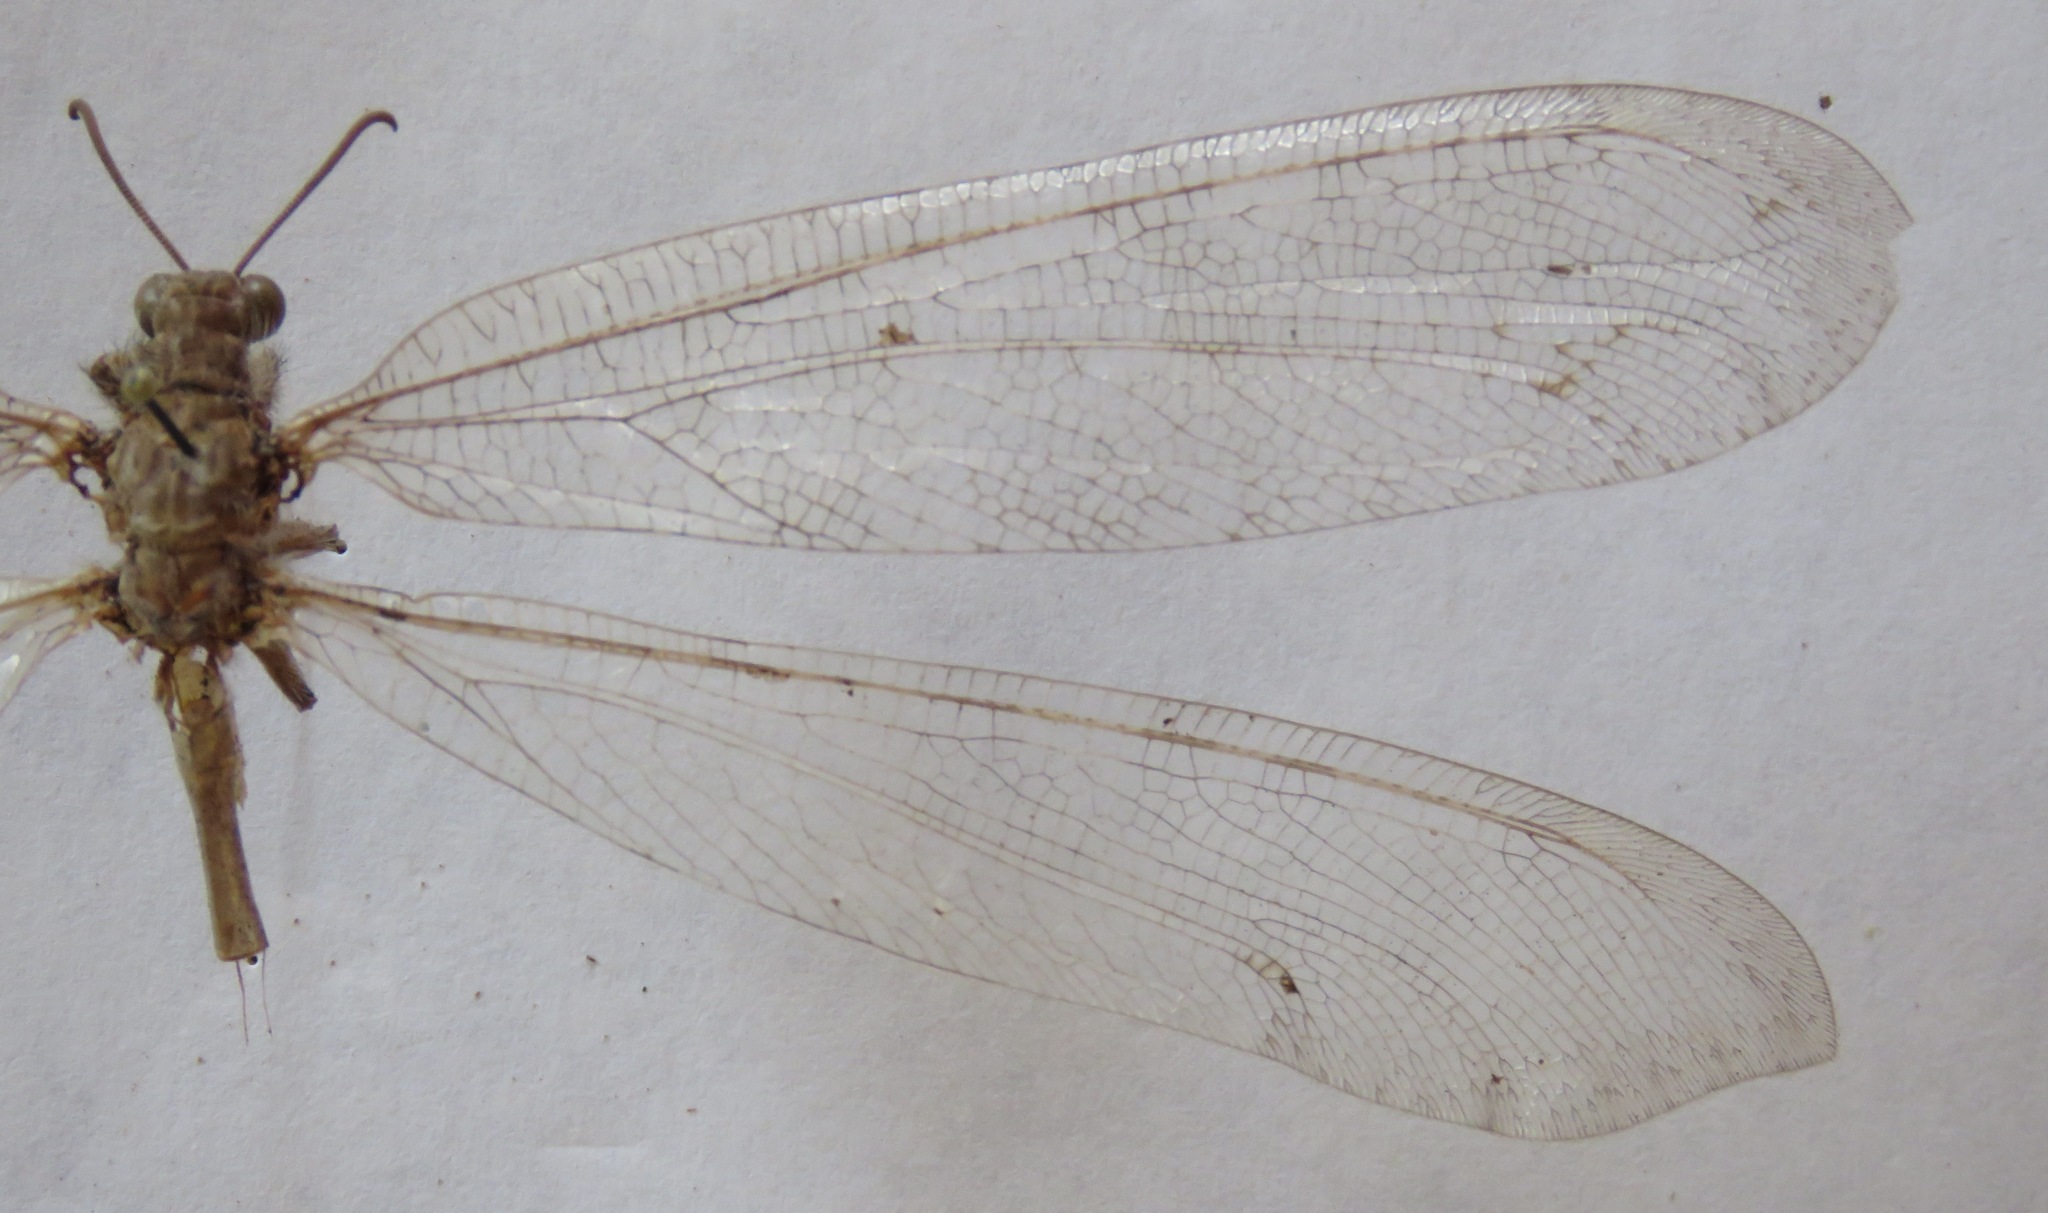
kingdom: Animalia
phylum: Arthropoda
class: Insecta
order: Neuroptera
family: Myrmeleontidae
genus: Vella
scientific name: Vella fallax
